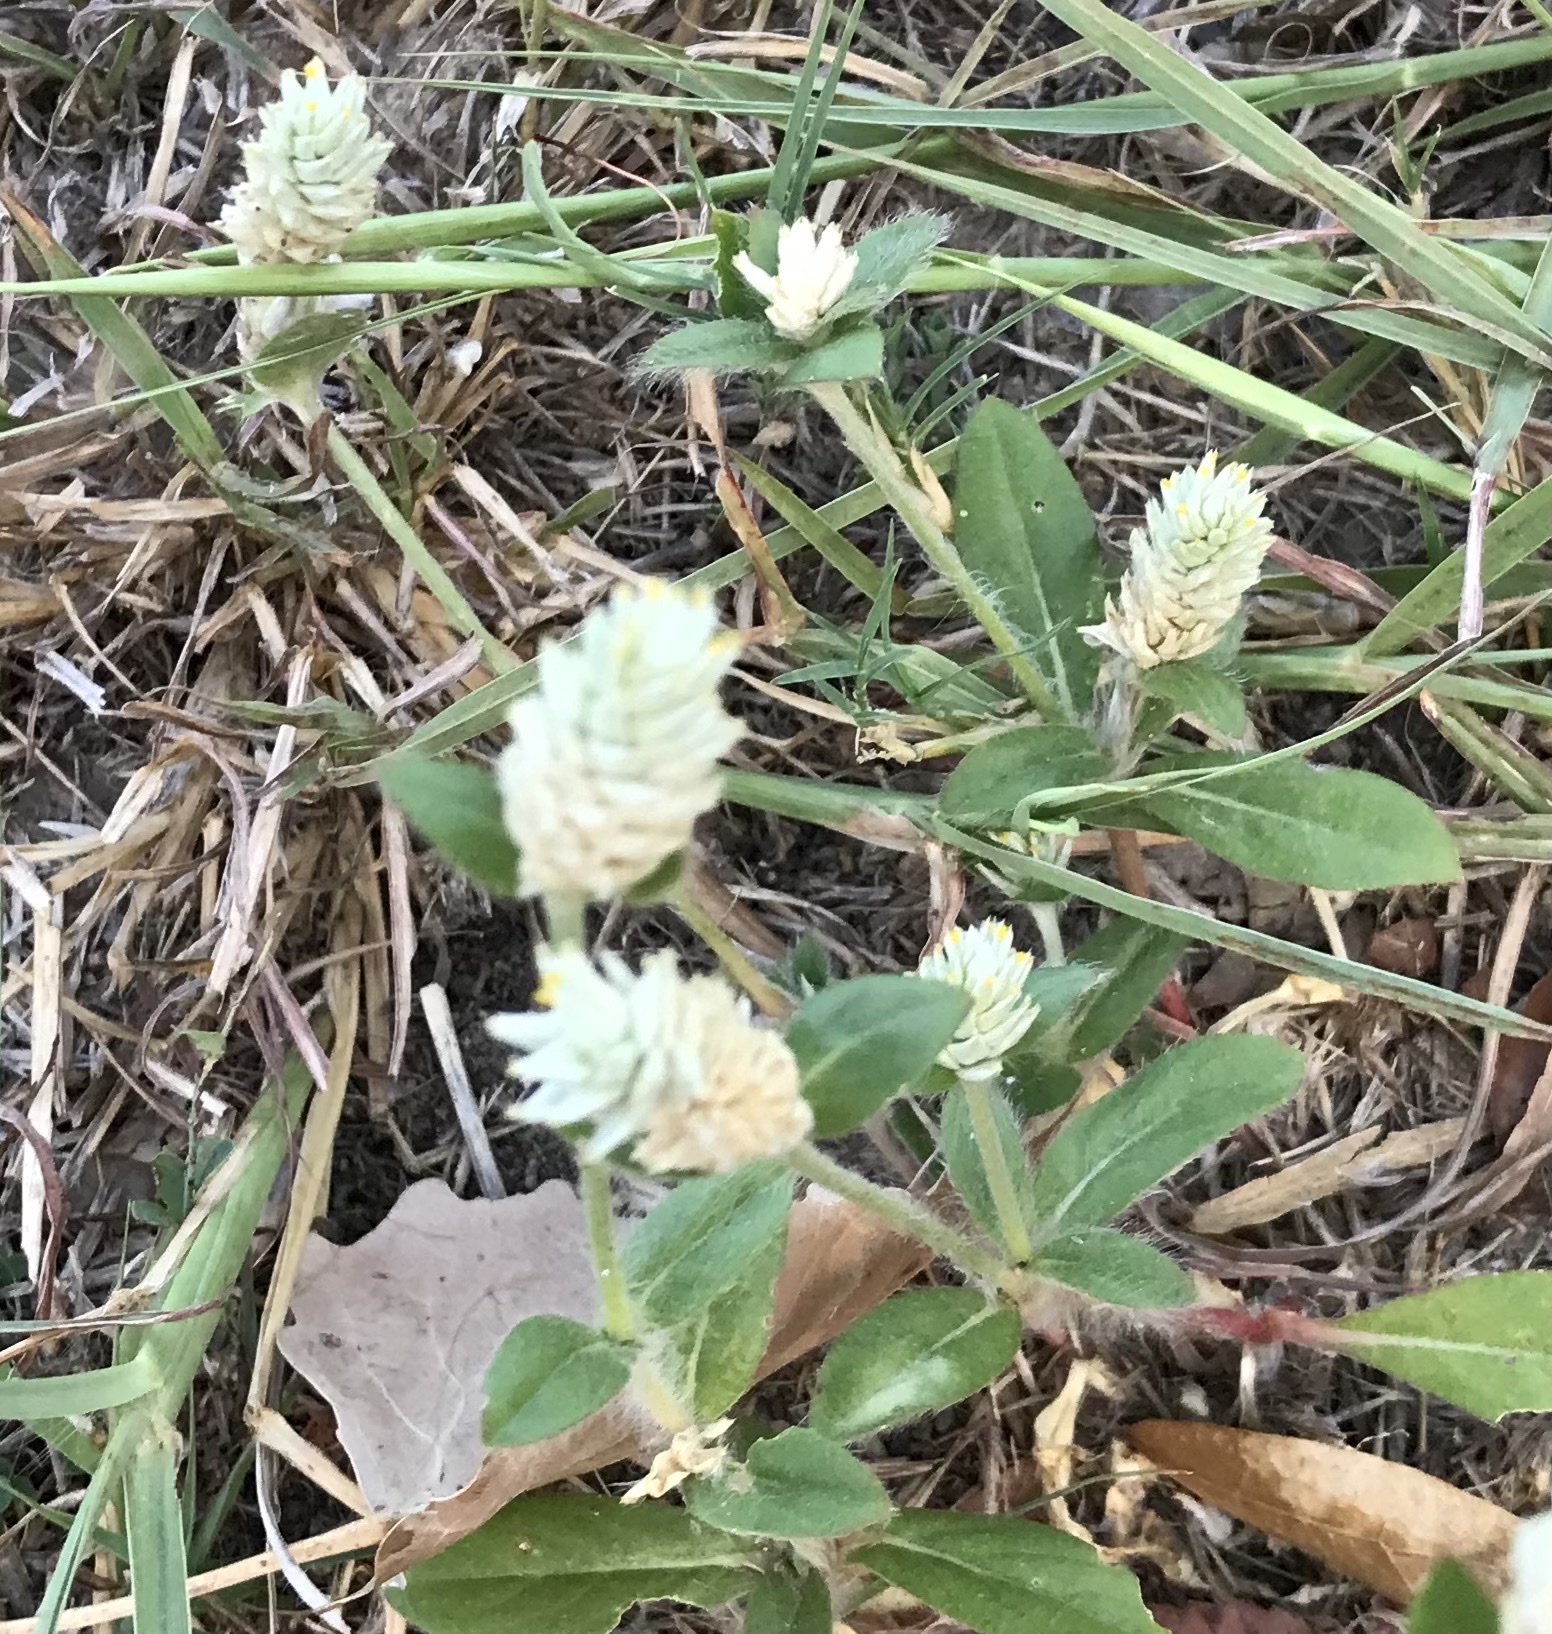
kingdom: Plantae
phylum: Tracheophyta
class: Magnoliopsida
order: Caryophyllales
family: Amaranthaceae
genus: Gomphrena
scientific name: Gomphrena serrata
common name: Arrasa con todo
